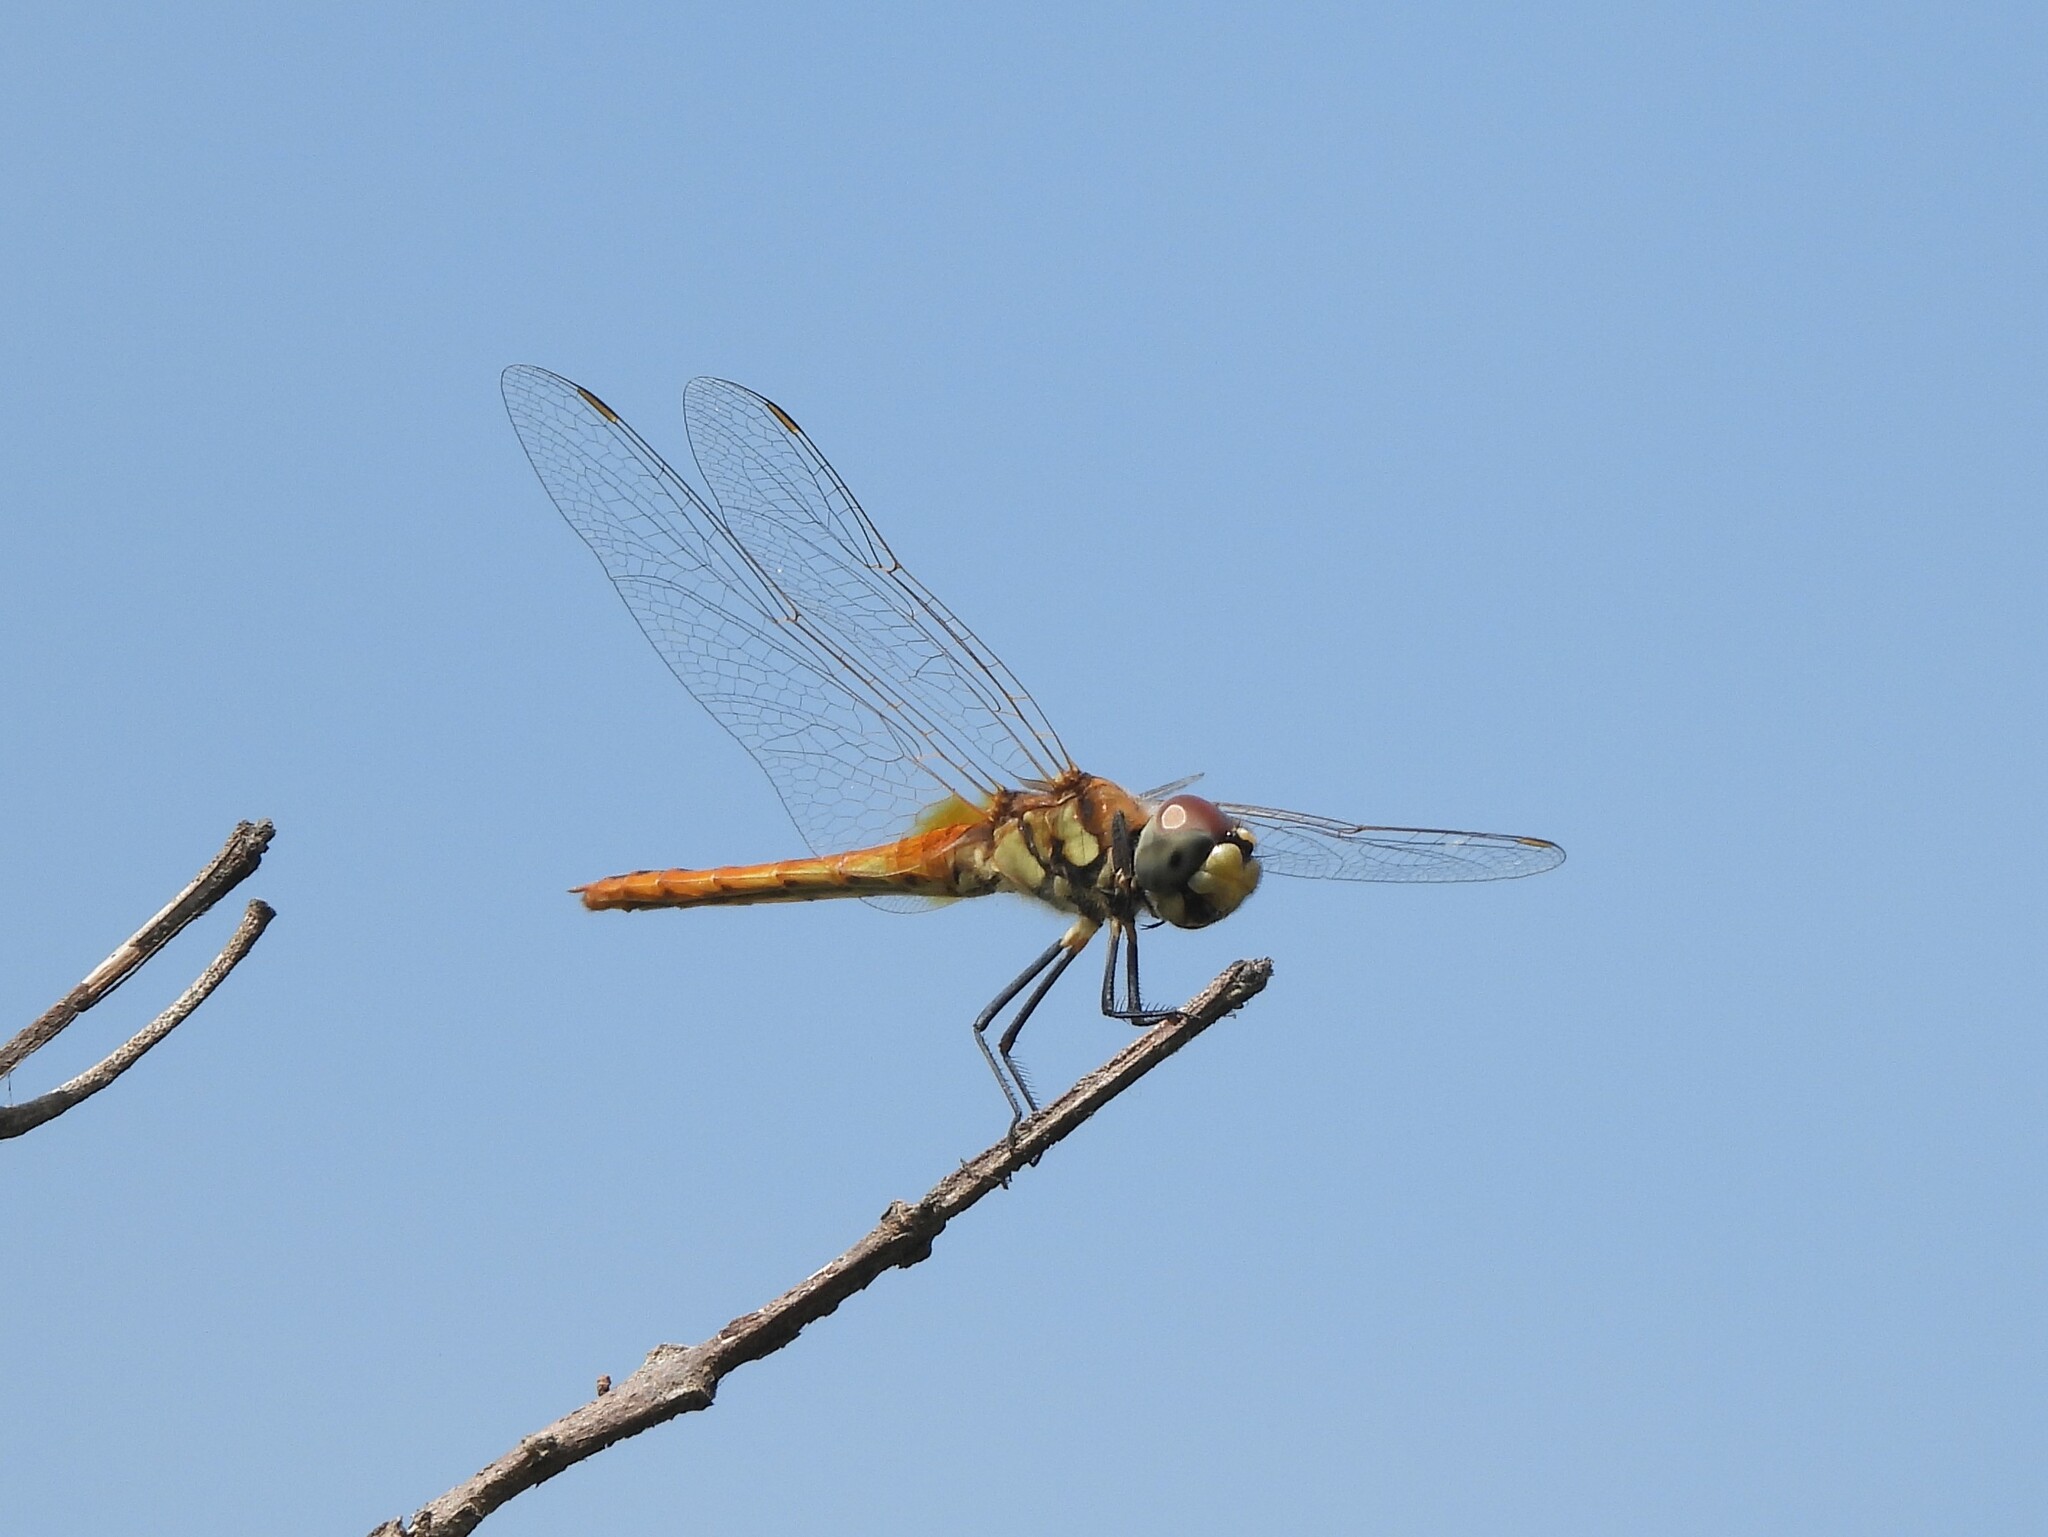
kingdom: Animalia
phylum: Arthropoda
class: Insecta
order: Odonata
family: Libellulidae
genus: Macrodiplax
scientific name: Macrodiplax cora
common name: Coastal glider
